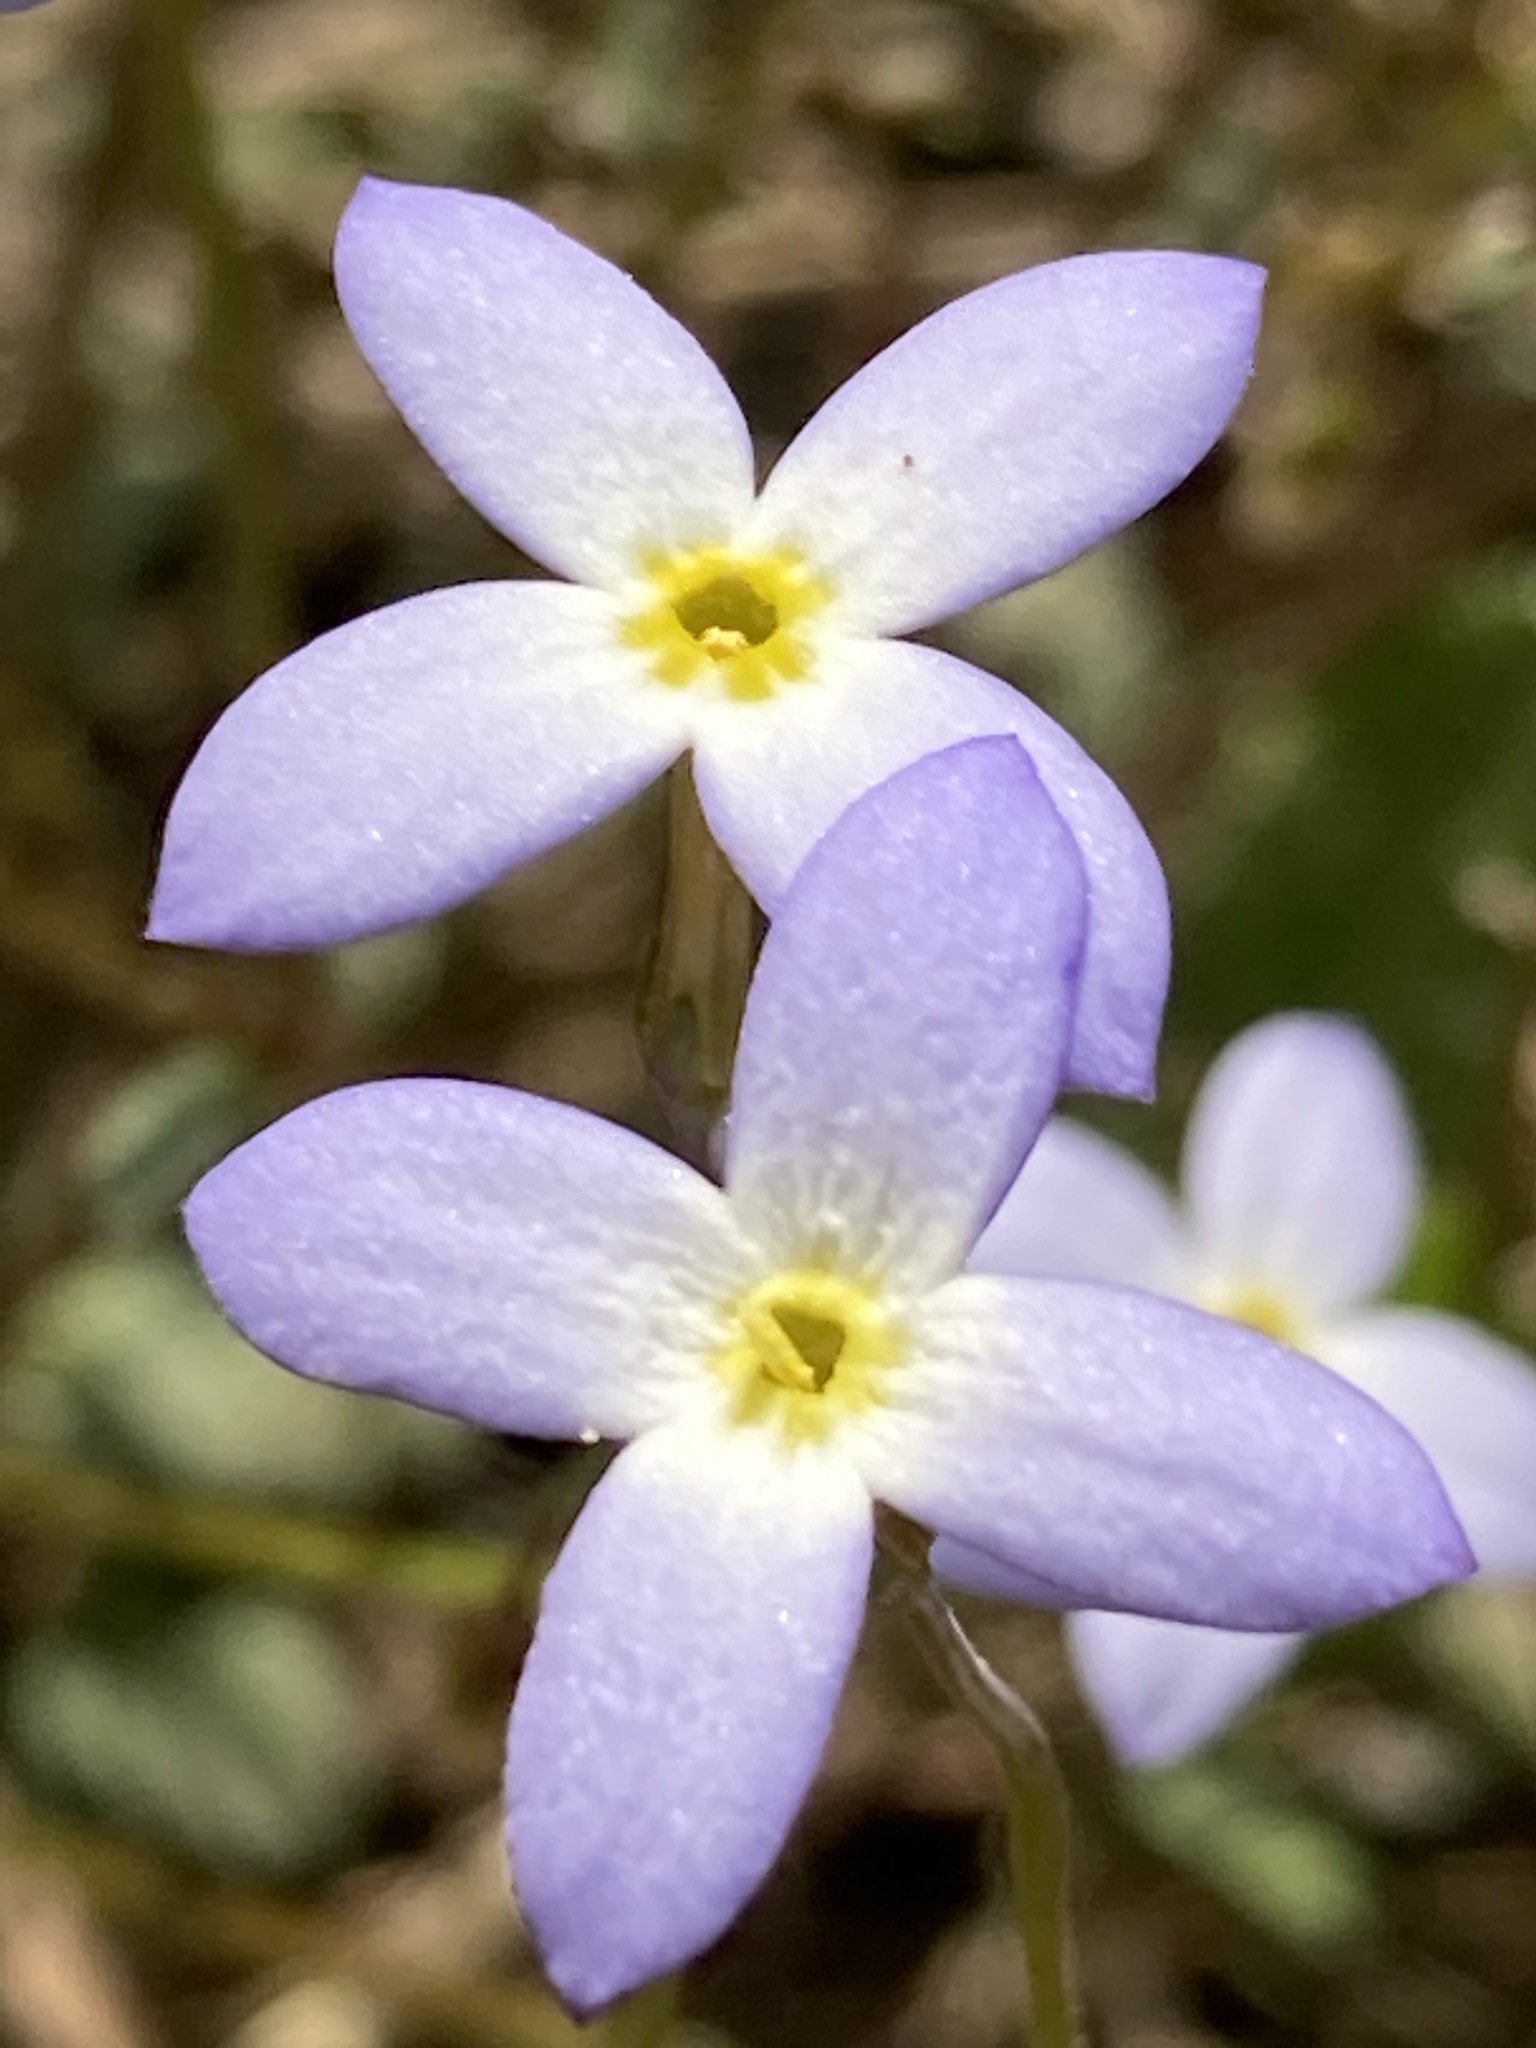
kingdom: Plantae
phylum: Tracheophyta
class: Magnoliopsida
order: Gentianales
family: Rubiaceae
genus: Houstonia
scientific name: Houstonia caerulea
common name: Bluets
